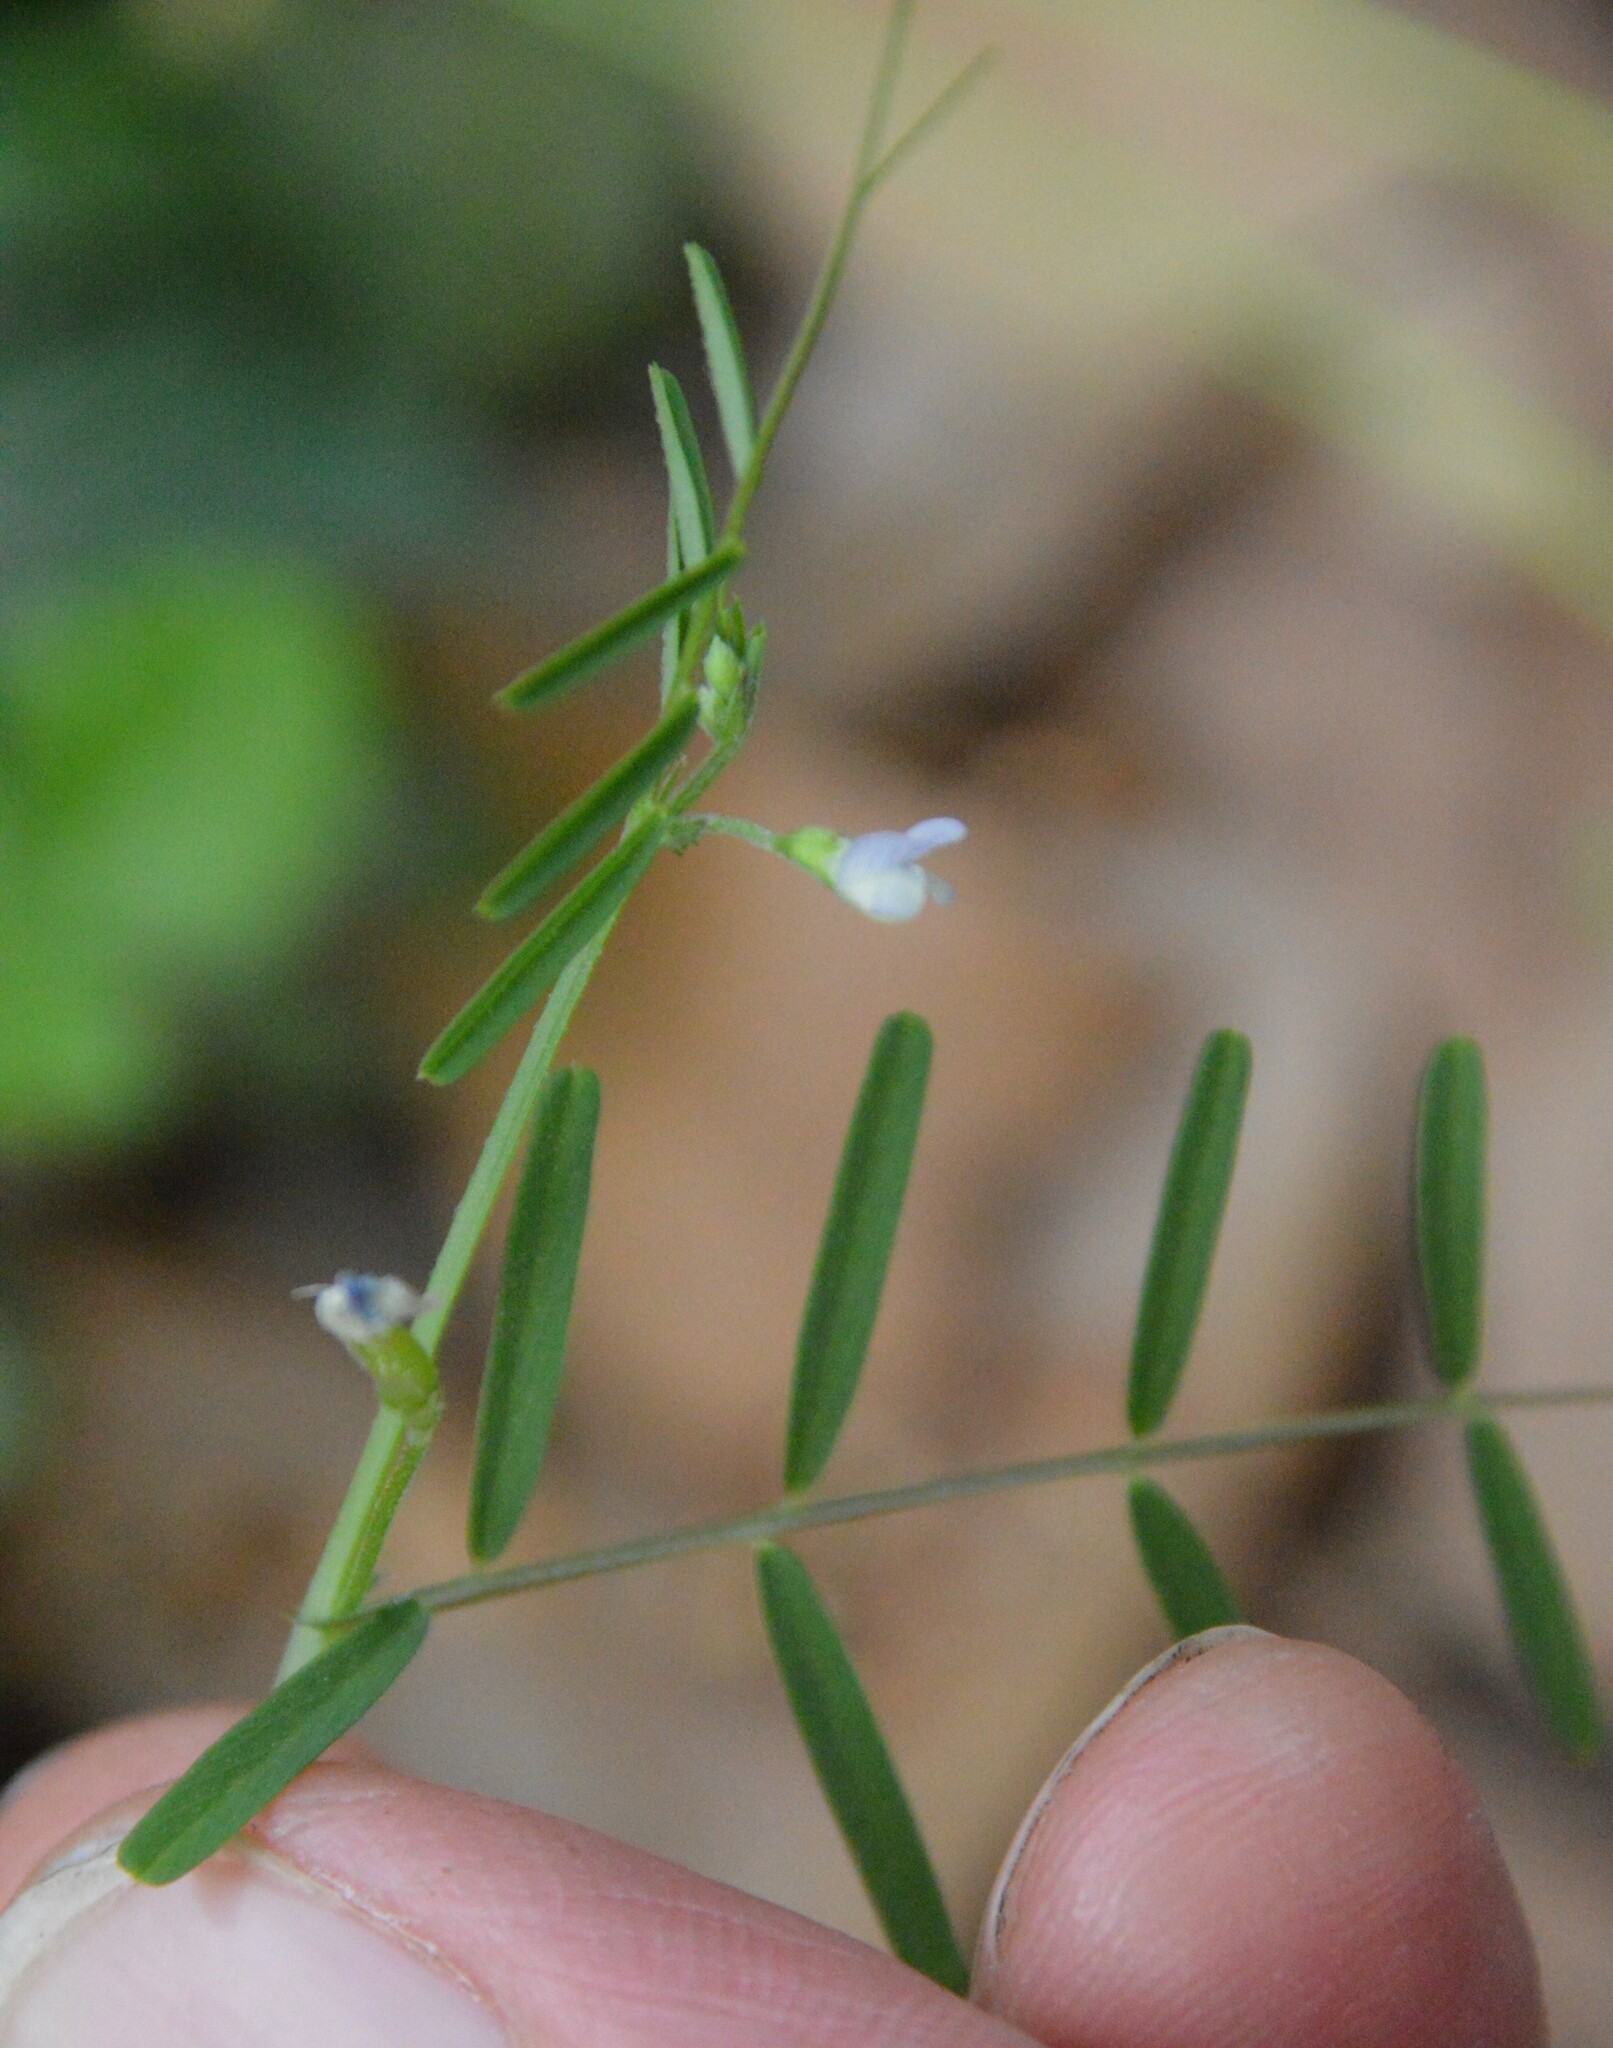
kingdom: Plantae
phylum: Tracheophyta
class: Magnoliopsida
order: Fabales
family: Fabaceae
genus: Vicia
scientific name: Vicia minutiflora
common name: Pygmy-flower vetch
